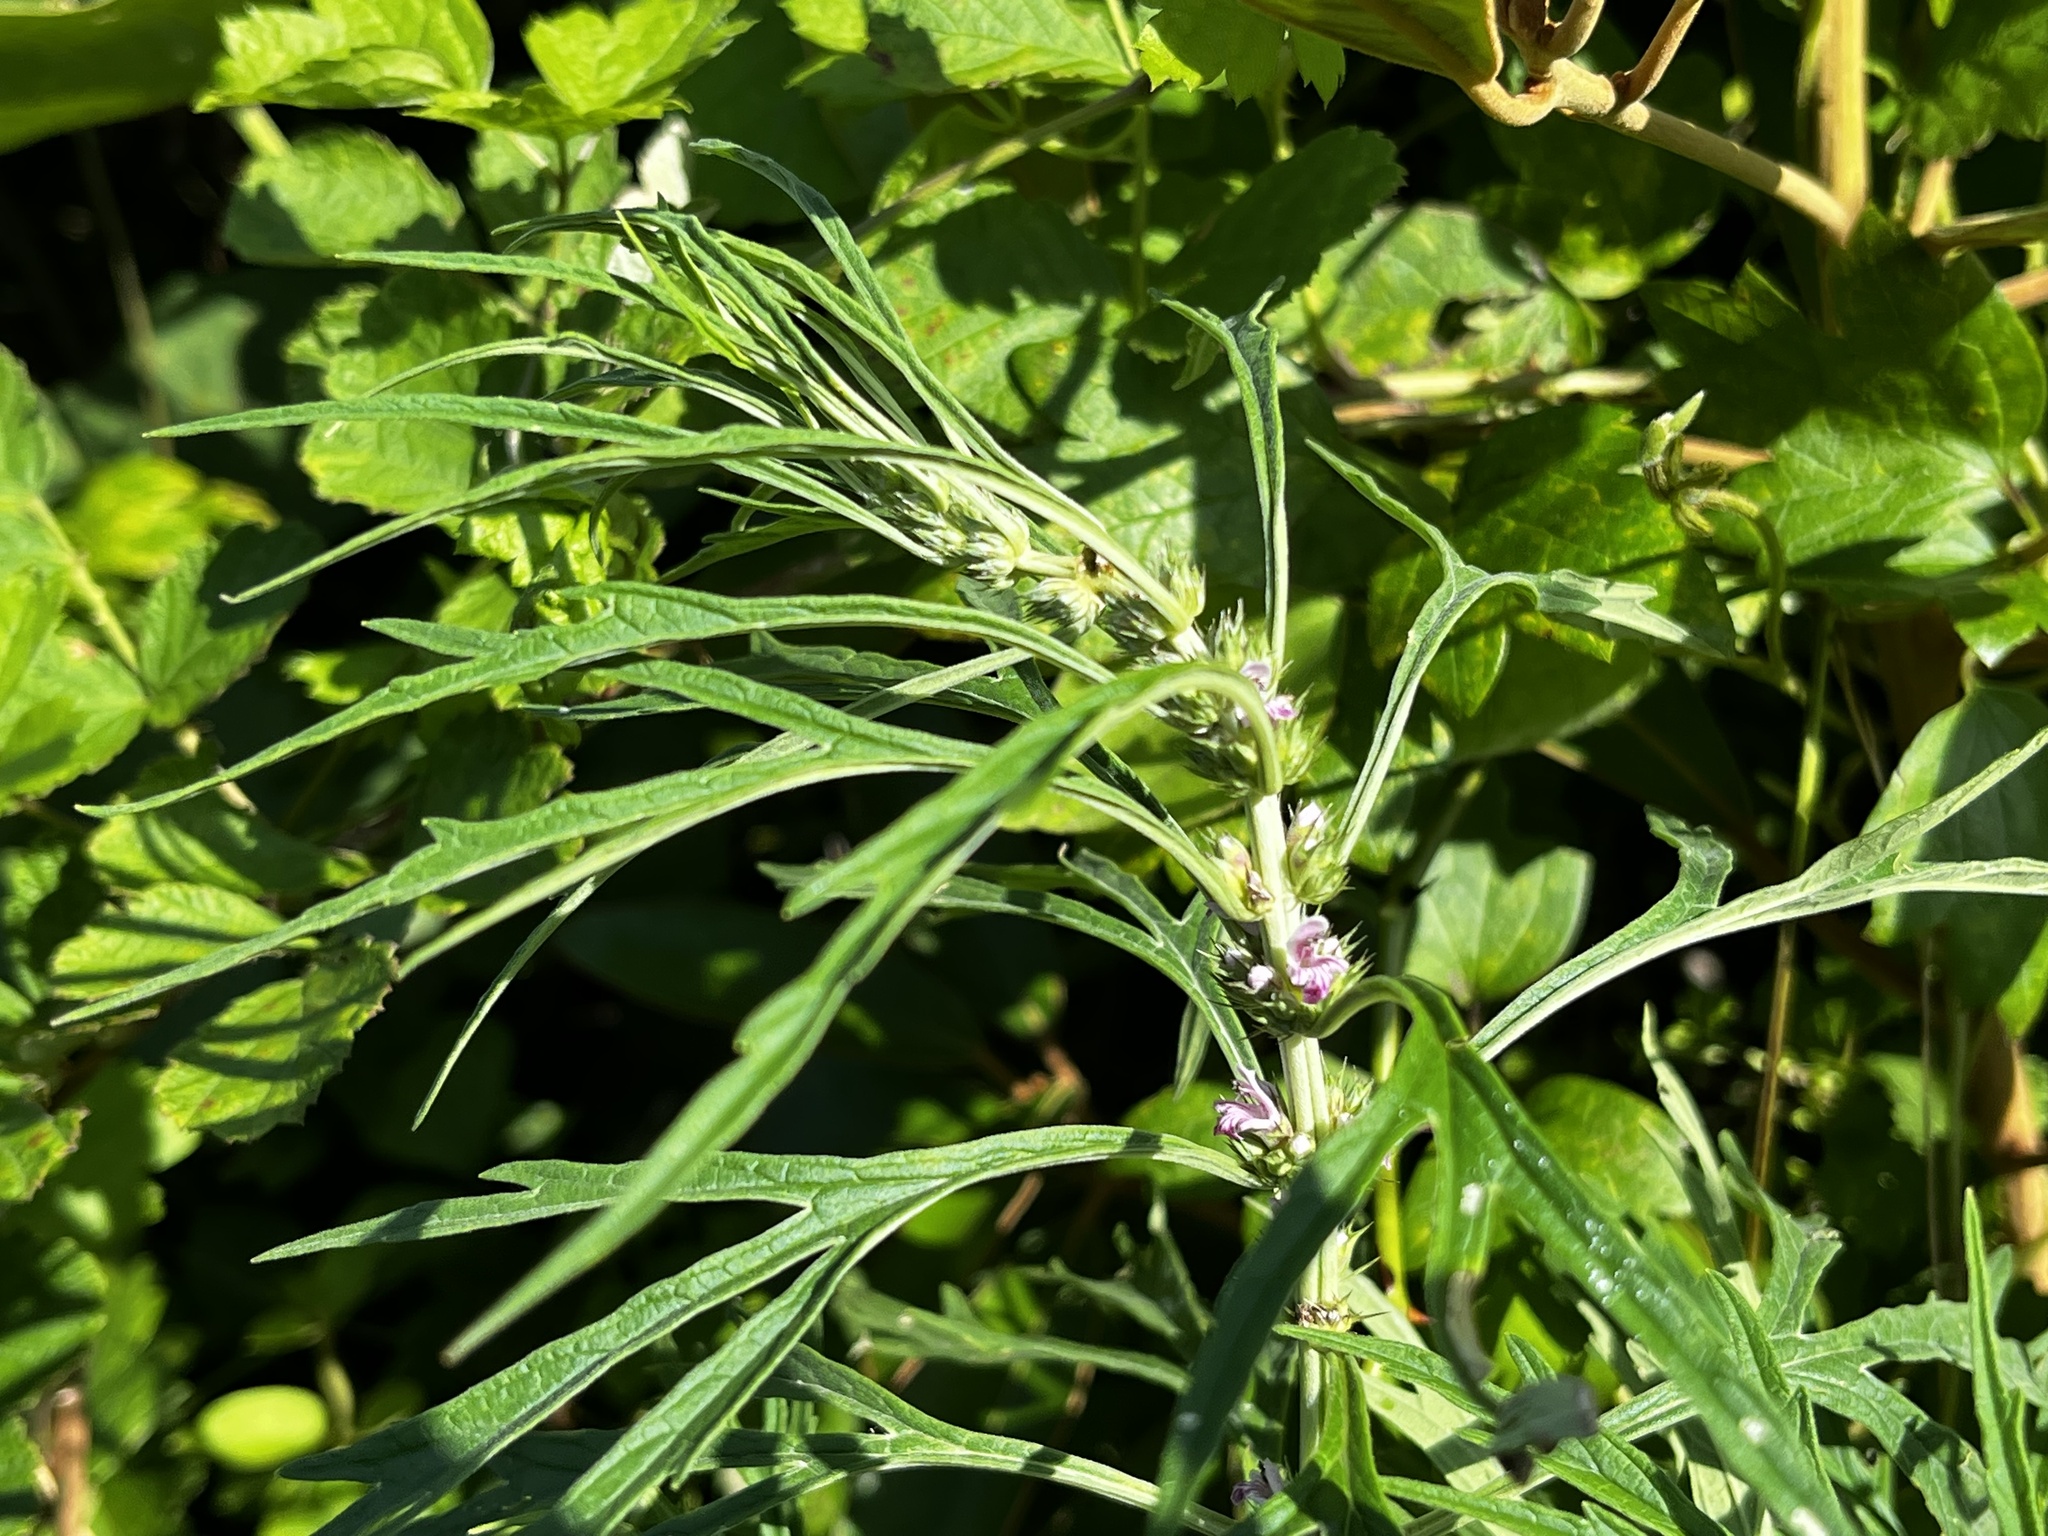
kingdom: Plantae
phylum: Tracheophyta
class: Magnoliopsida
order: Lamiales
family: Lamiaceae
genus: Leonurus
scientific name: Leonurus japonicus
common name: Honeyweed
